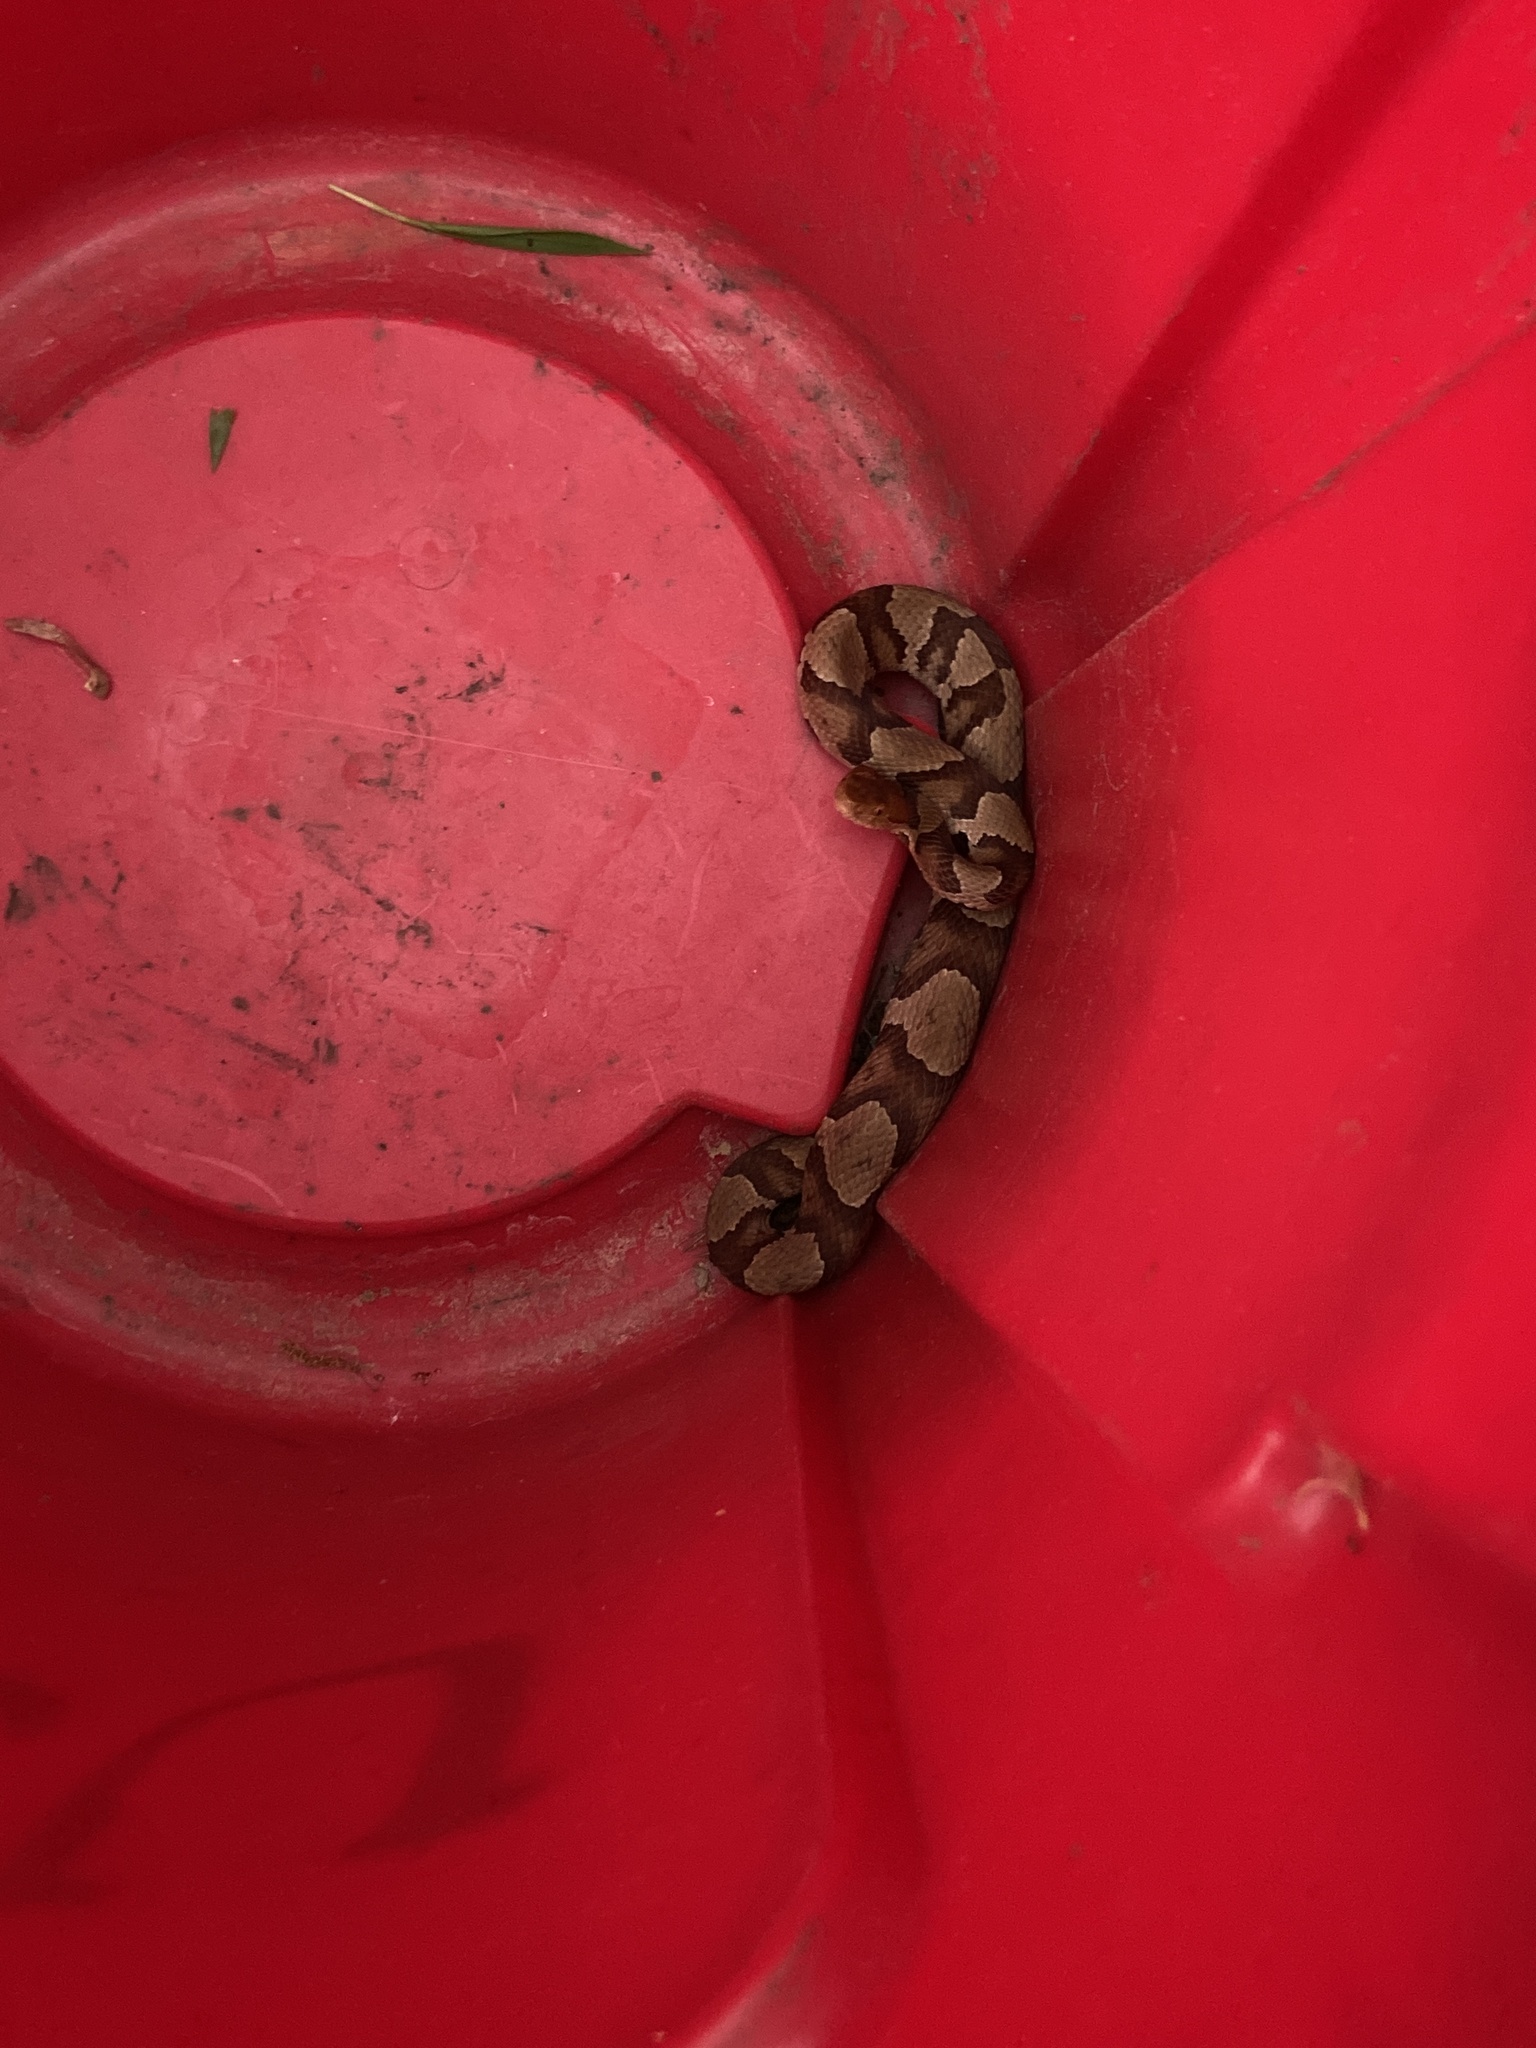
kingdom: Animalia
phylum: Chordata
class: Squamata
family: Viperidae
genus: Agkistrodon
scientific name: Agkistrodon contortrix
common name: Northern copperhead
